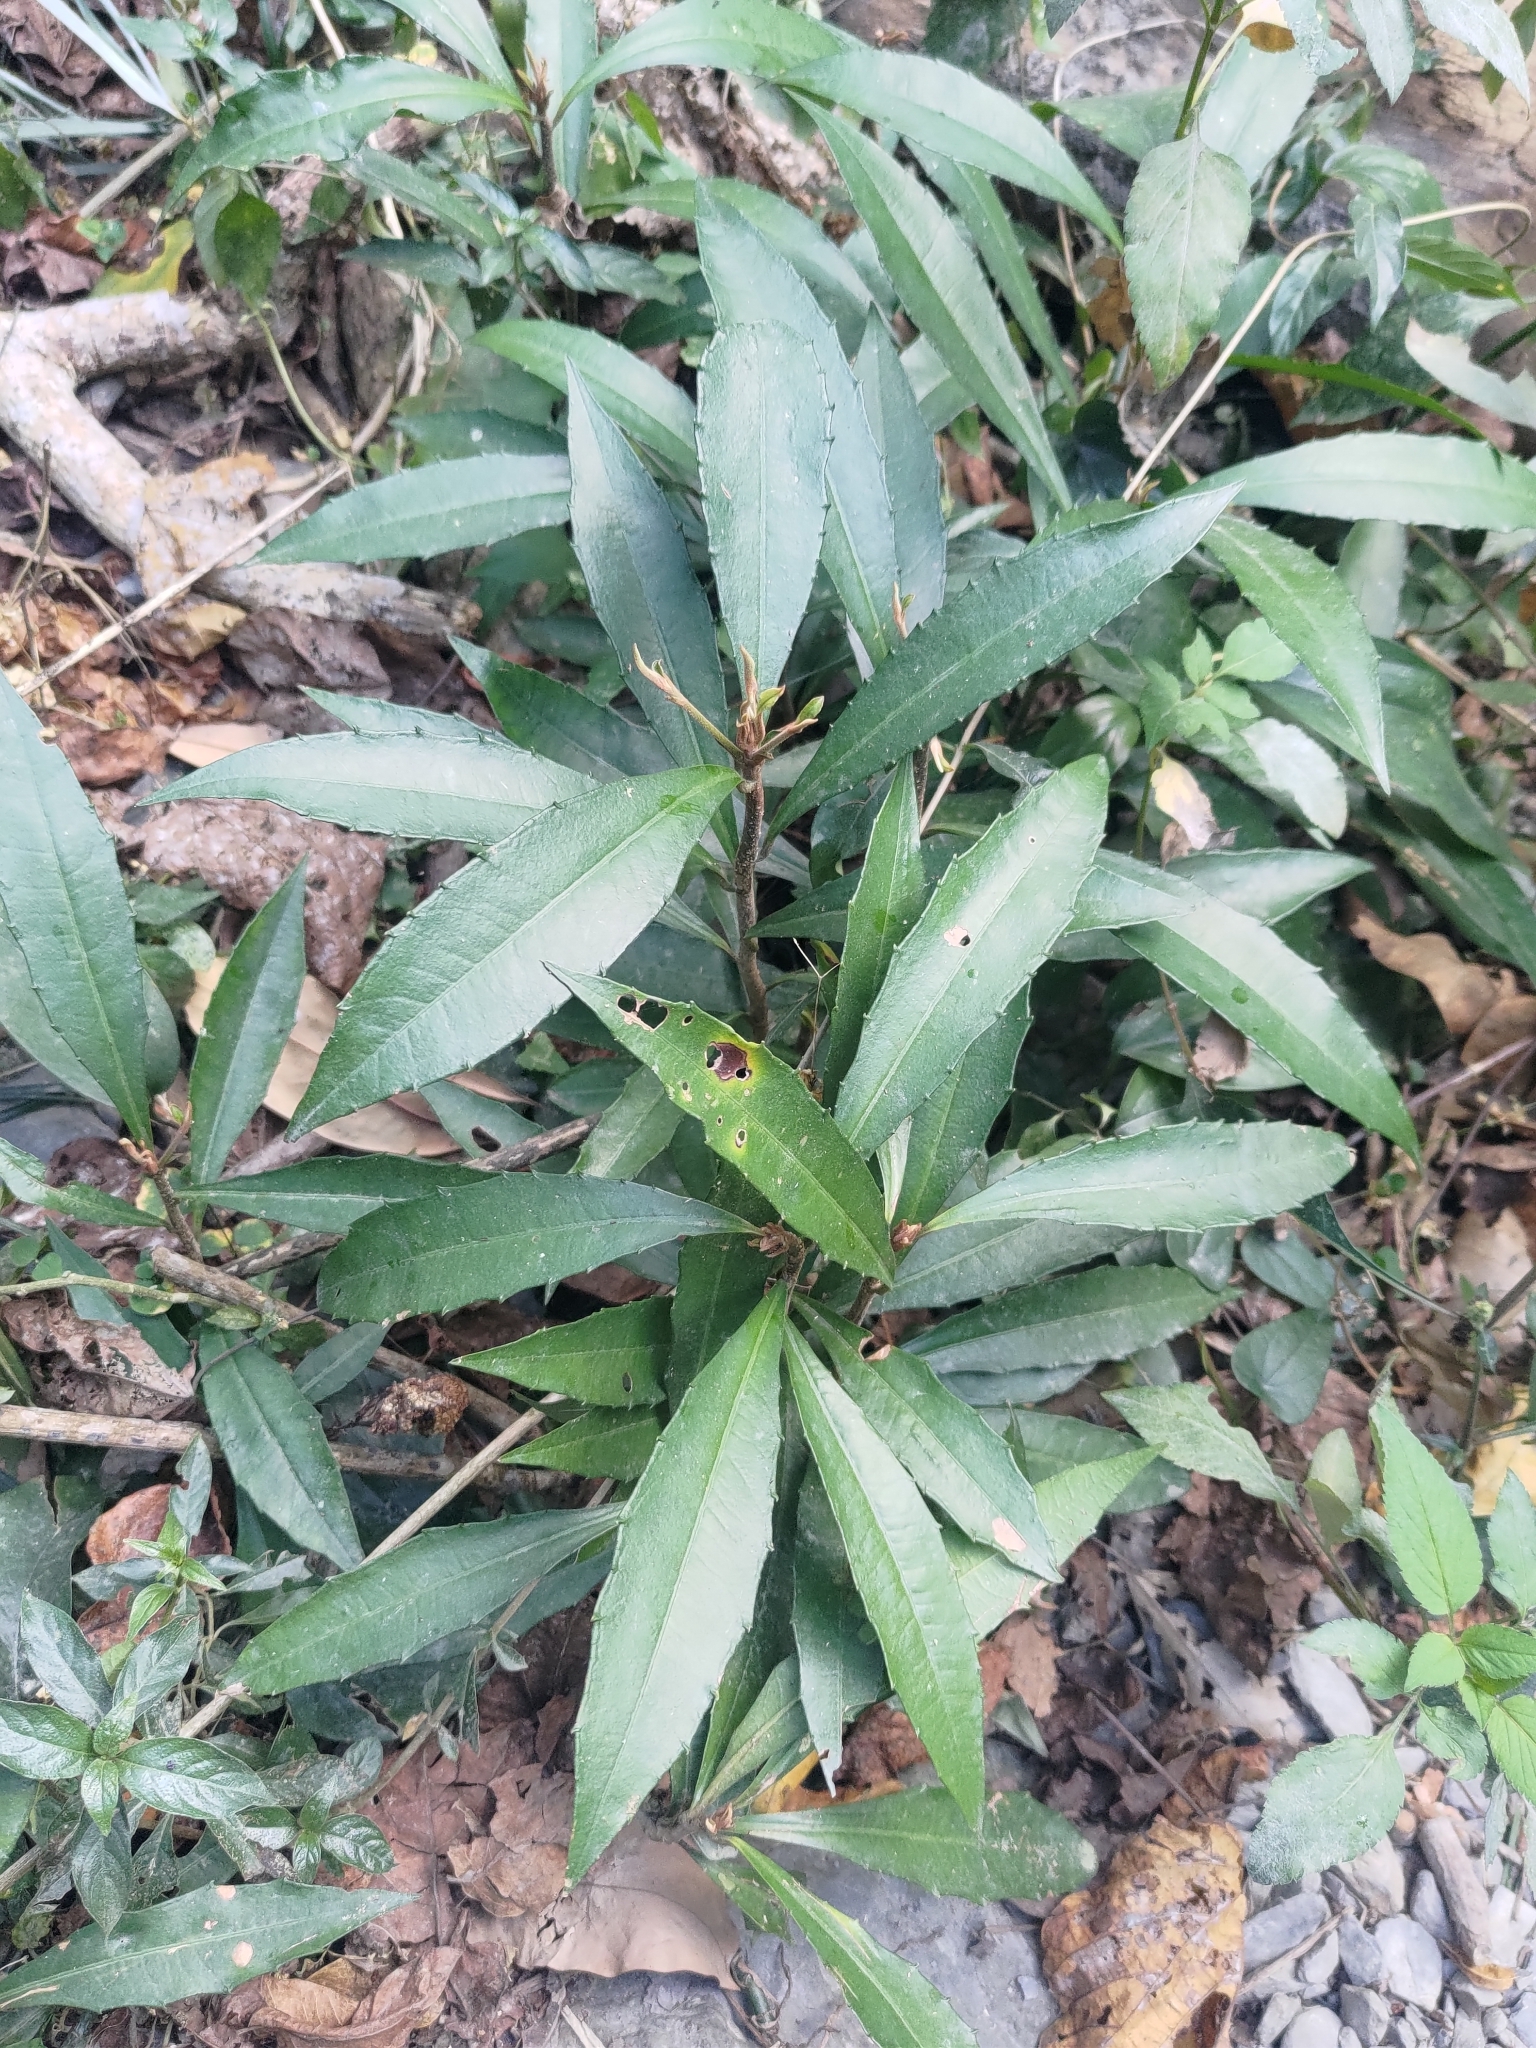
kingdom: Plantae
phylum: Tracheophyta
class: Magnoliopsida
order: Ericales
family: Primulaceae
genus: Ardisia
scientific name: Ardisia cornudentata
